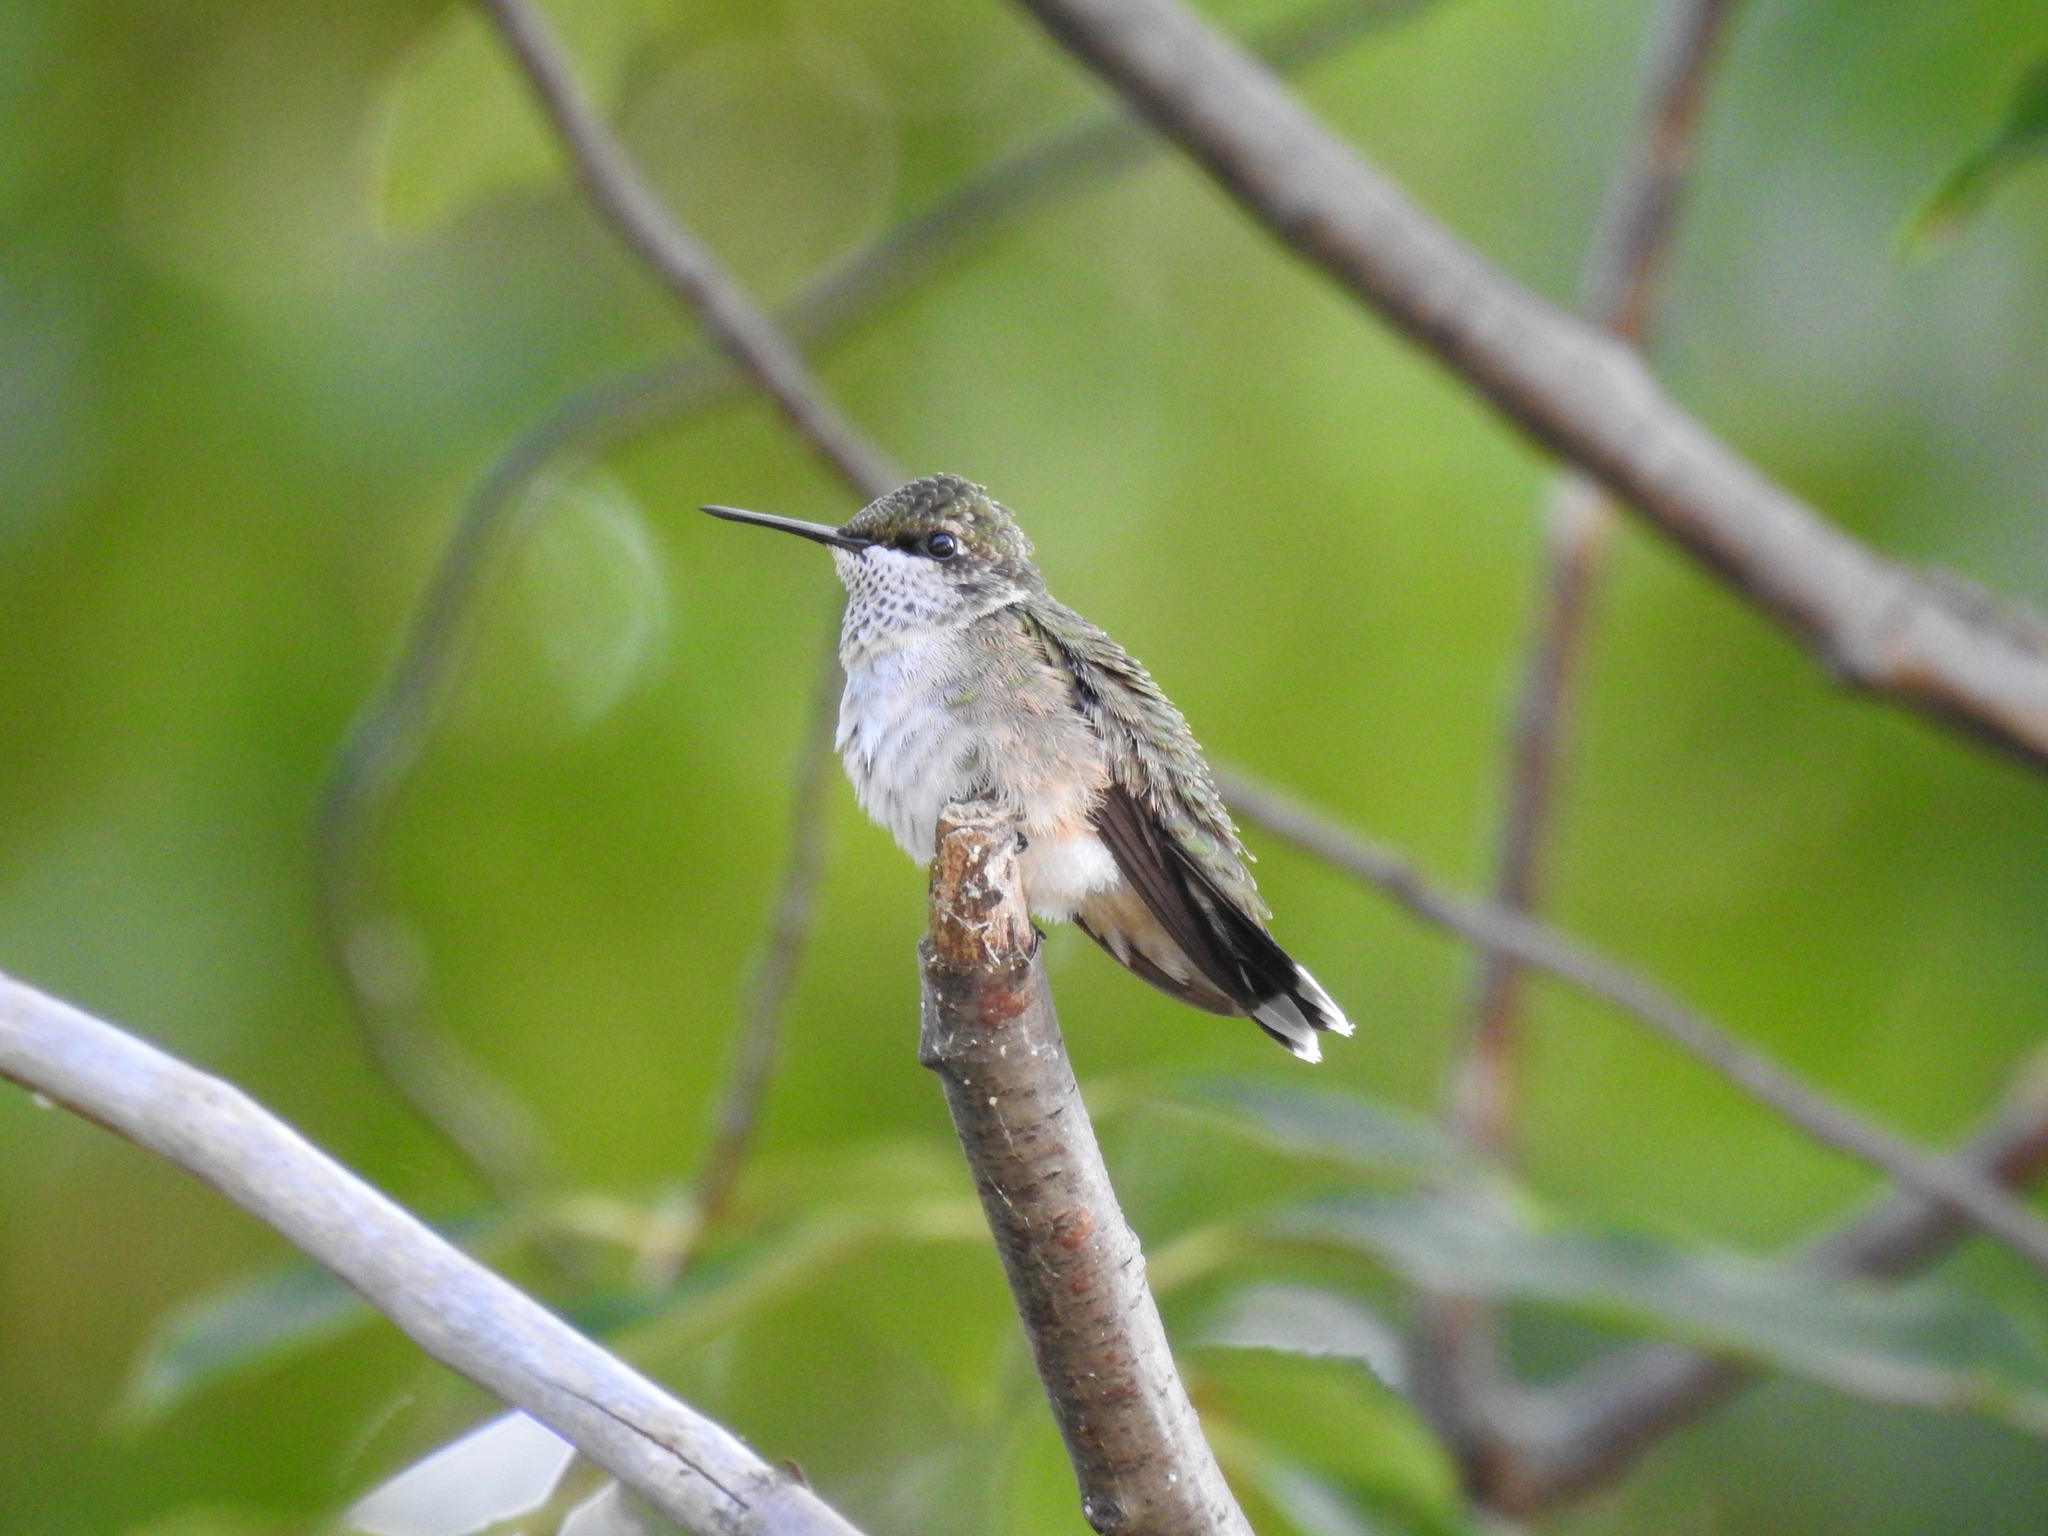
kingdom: Animalia
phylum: Chordata
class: Aves
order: Apodiformes
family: Trochilidae
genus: Archilochus
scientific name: Archilochus colubris
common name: Ruby-throated hummingbird
